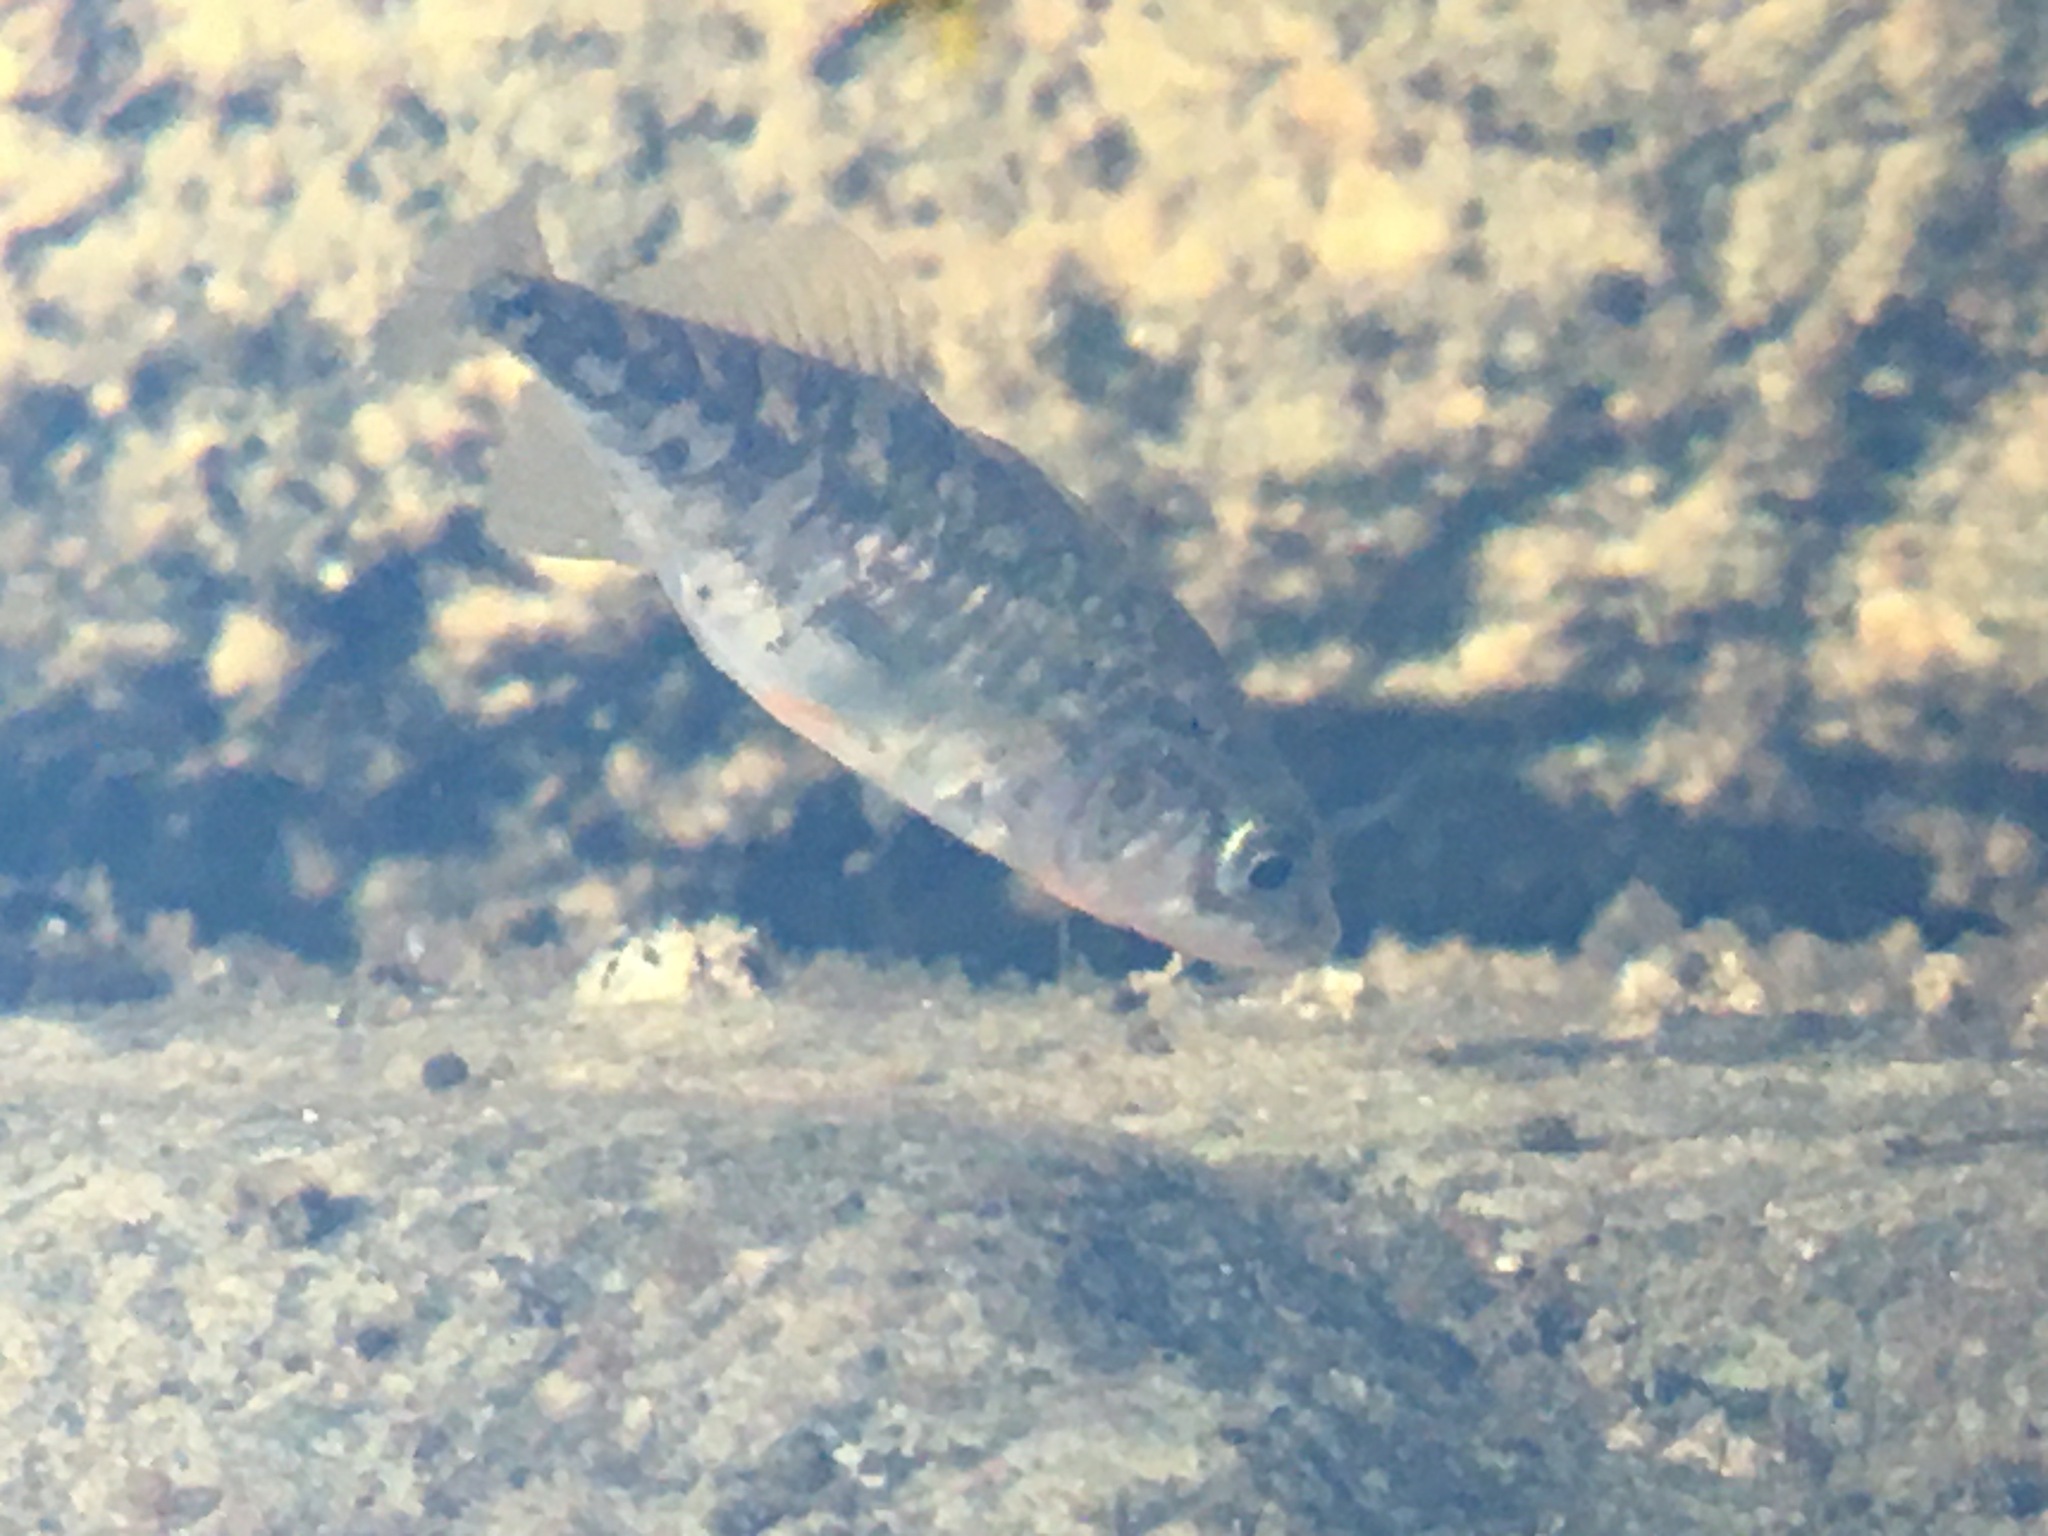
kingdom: Animalia
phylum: Chordata
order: Gasterosteiformes
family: Gasterosteidae
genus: Gasterosteus
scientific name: Gasterosteus aculeatus
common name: Three-spined stickleback
